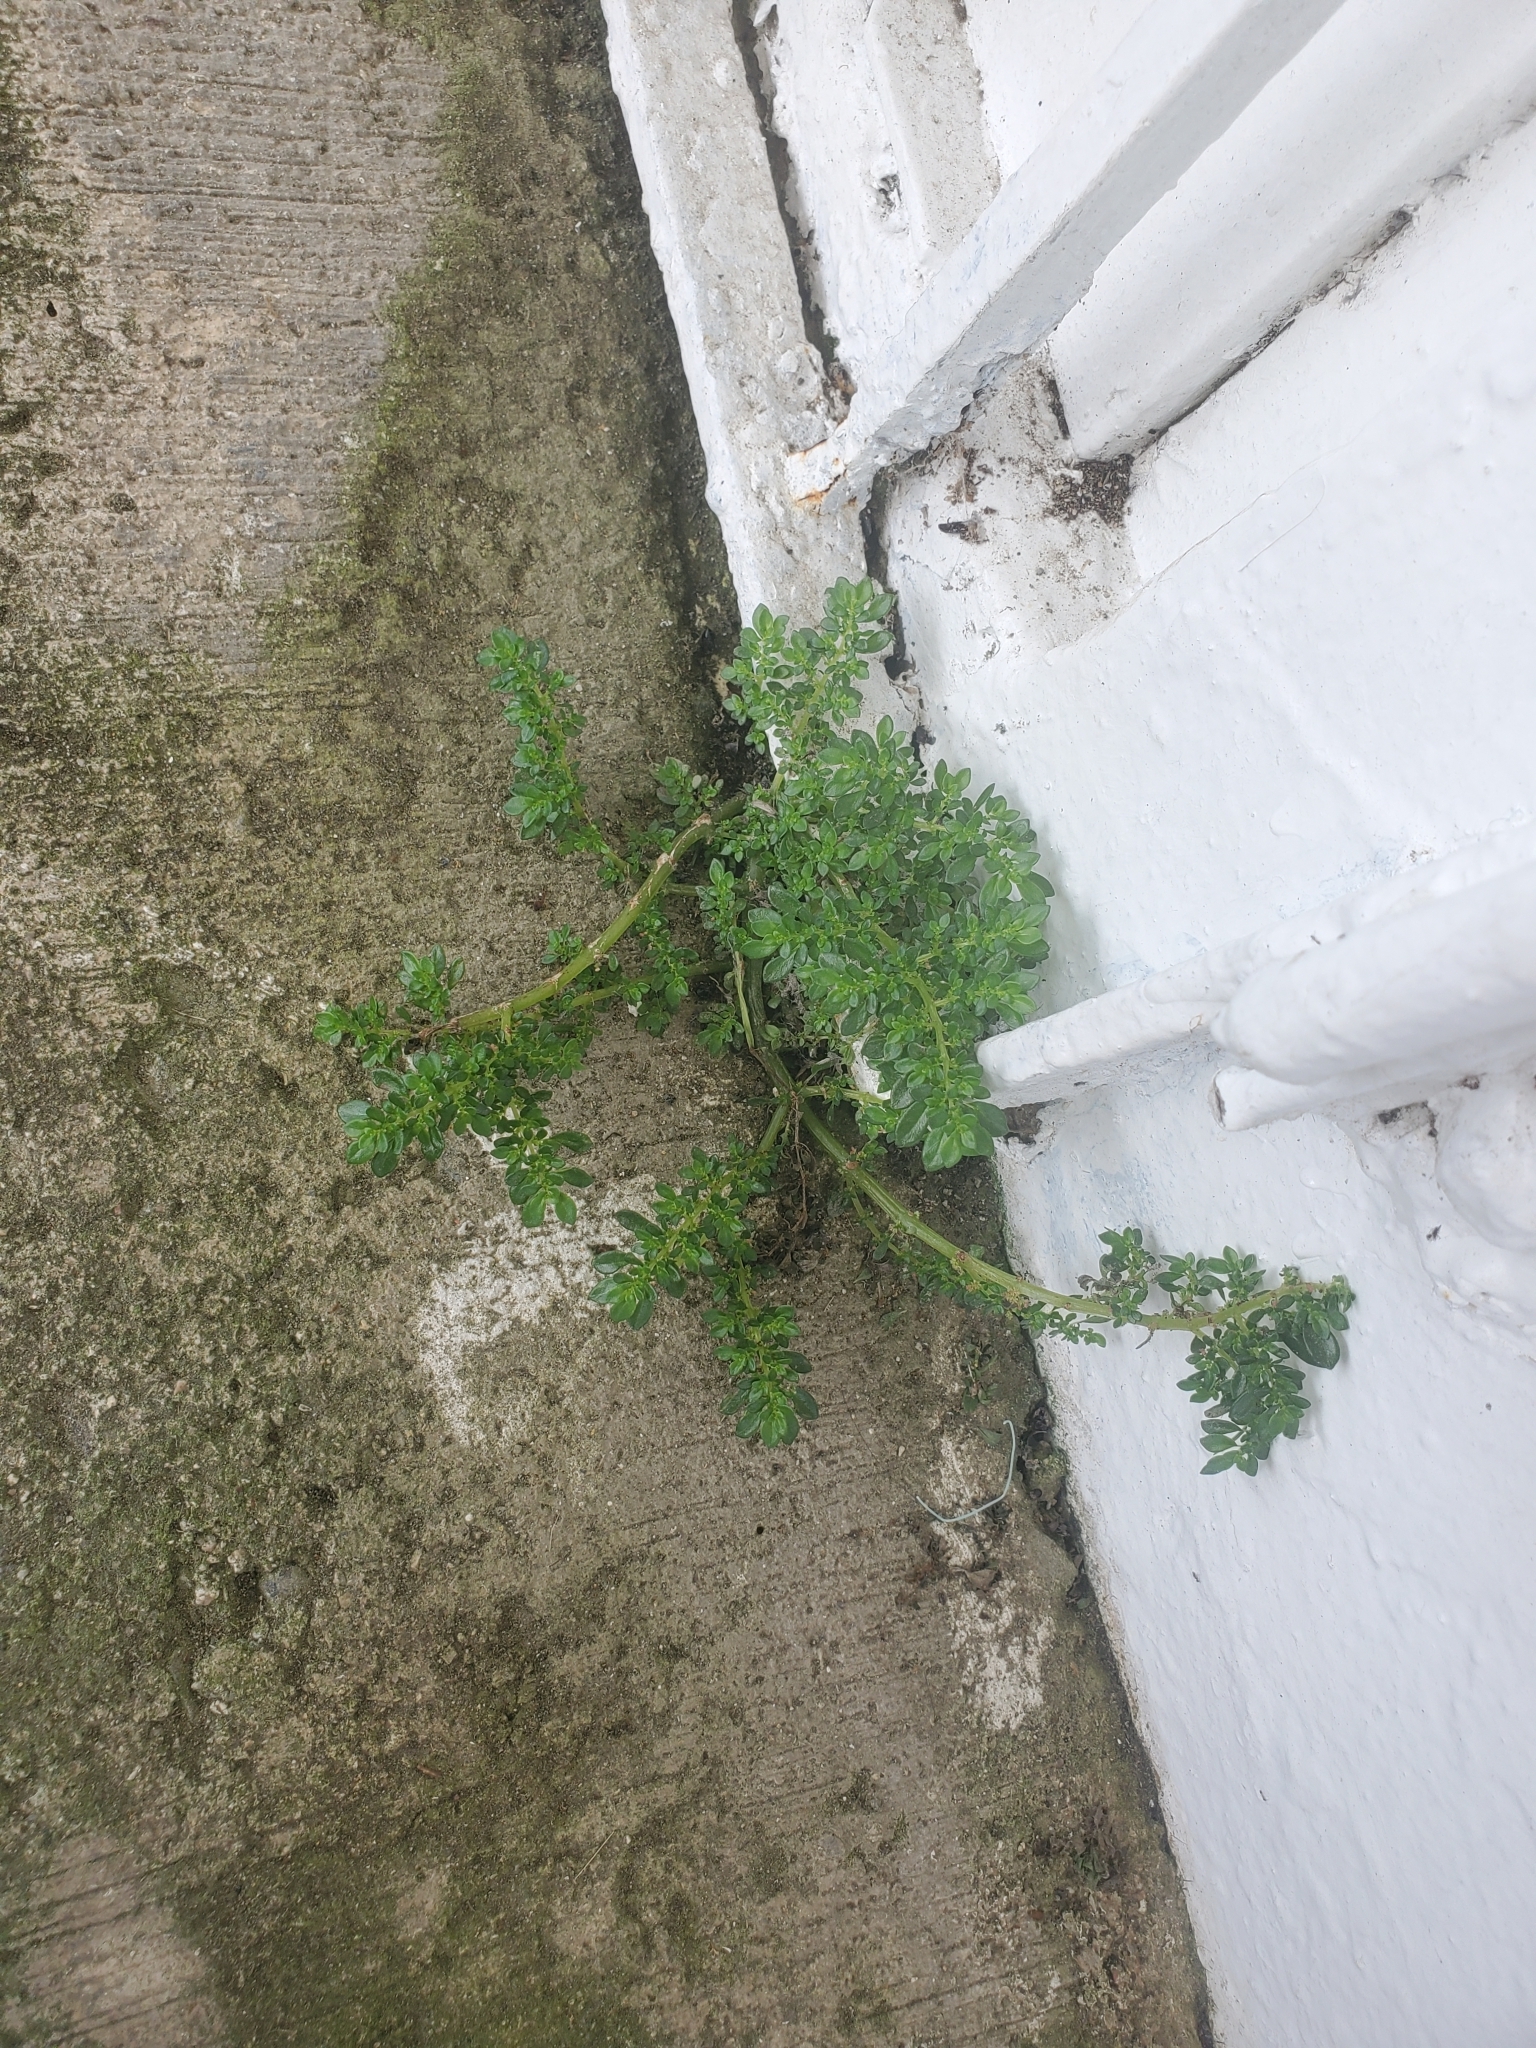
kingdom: Plantae
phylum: Tracheophyta
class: Magnoliopsida
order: Rosales
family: Urticaceae
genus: Pilea
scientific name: Pilea microphylla
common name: Artillery-plant
